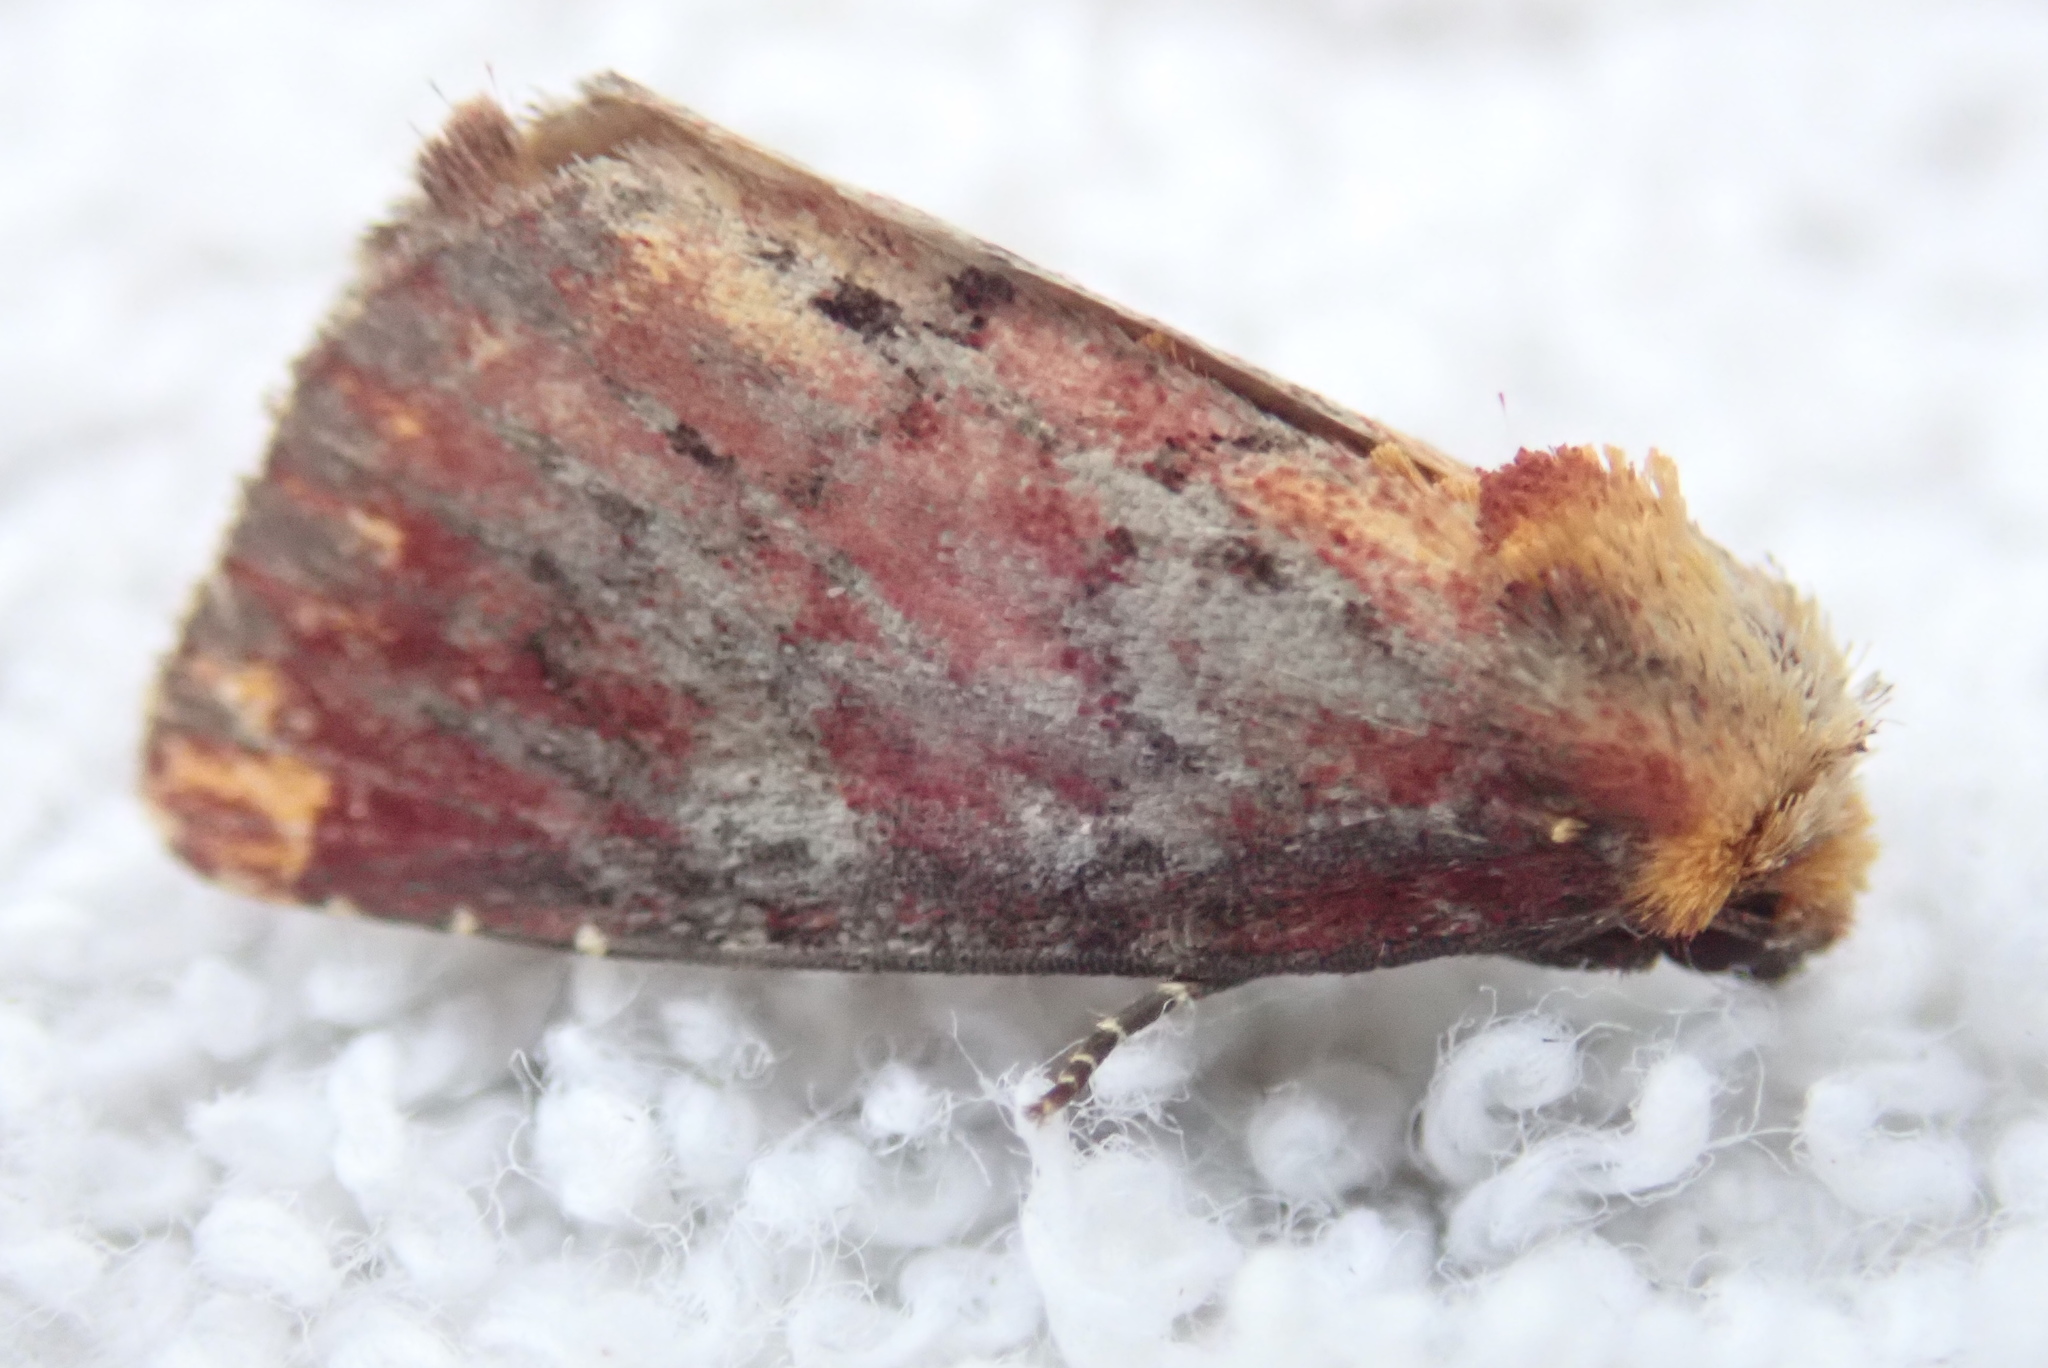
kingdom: Animalia
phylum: Arthropoda
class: Insecta
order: Lepidoptera
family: Noctuidae
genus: Achatodes
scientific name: Achatodes zeae
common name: Elder shoot borer
